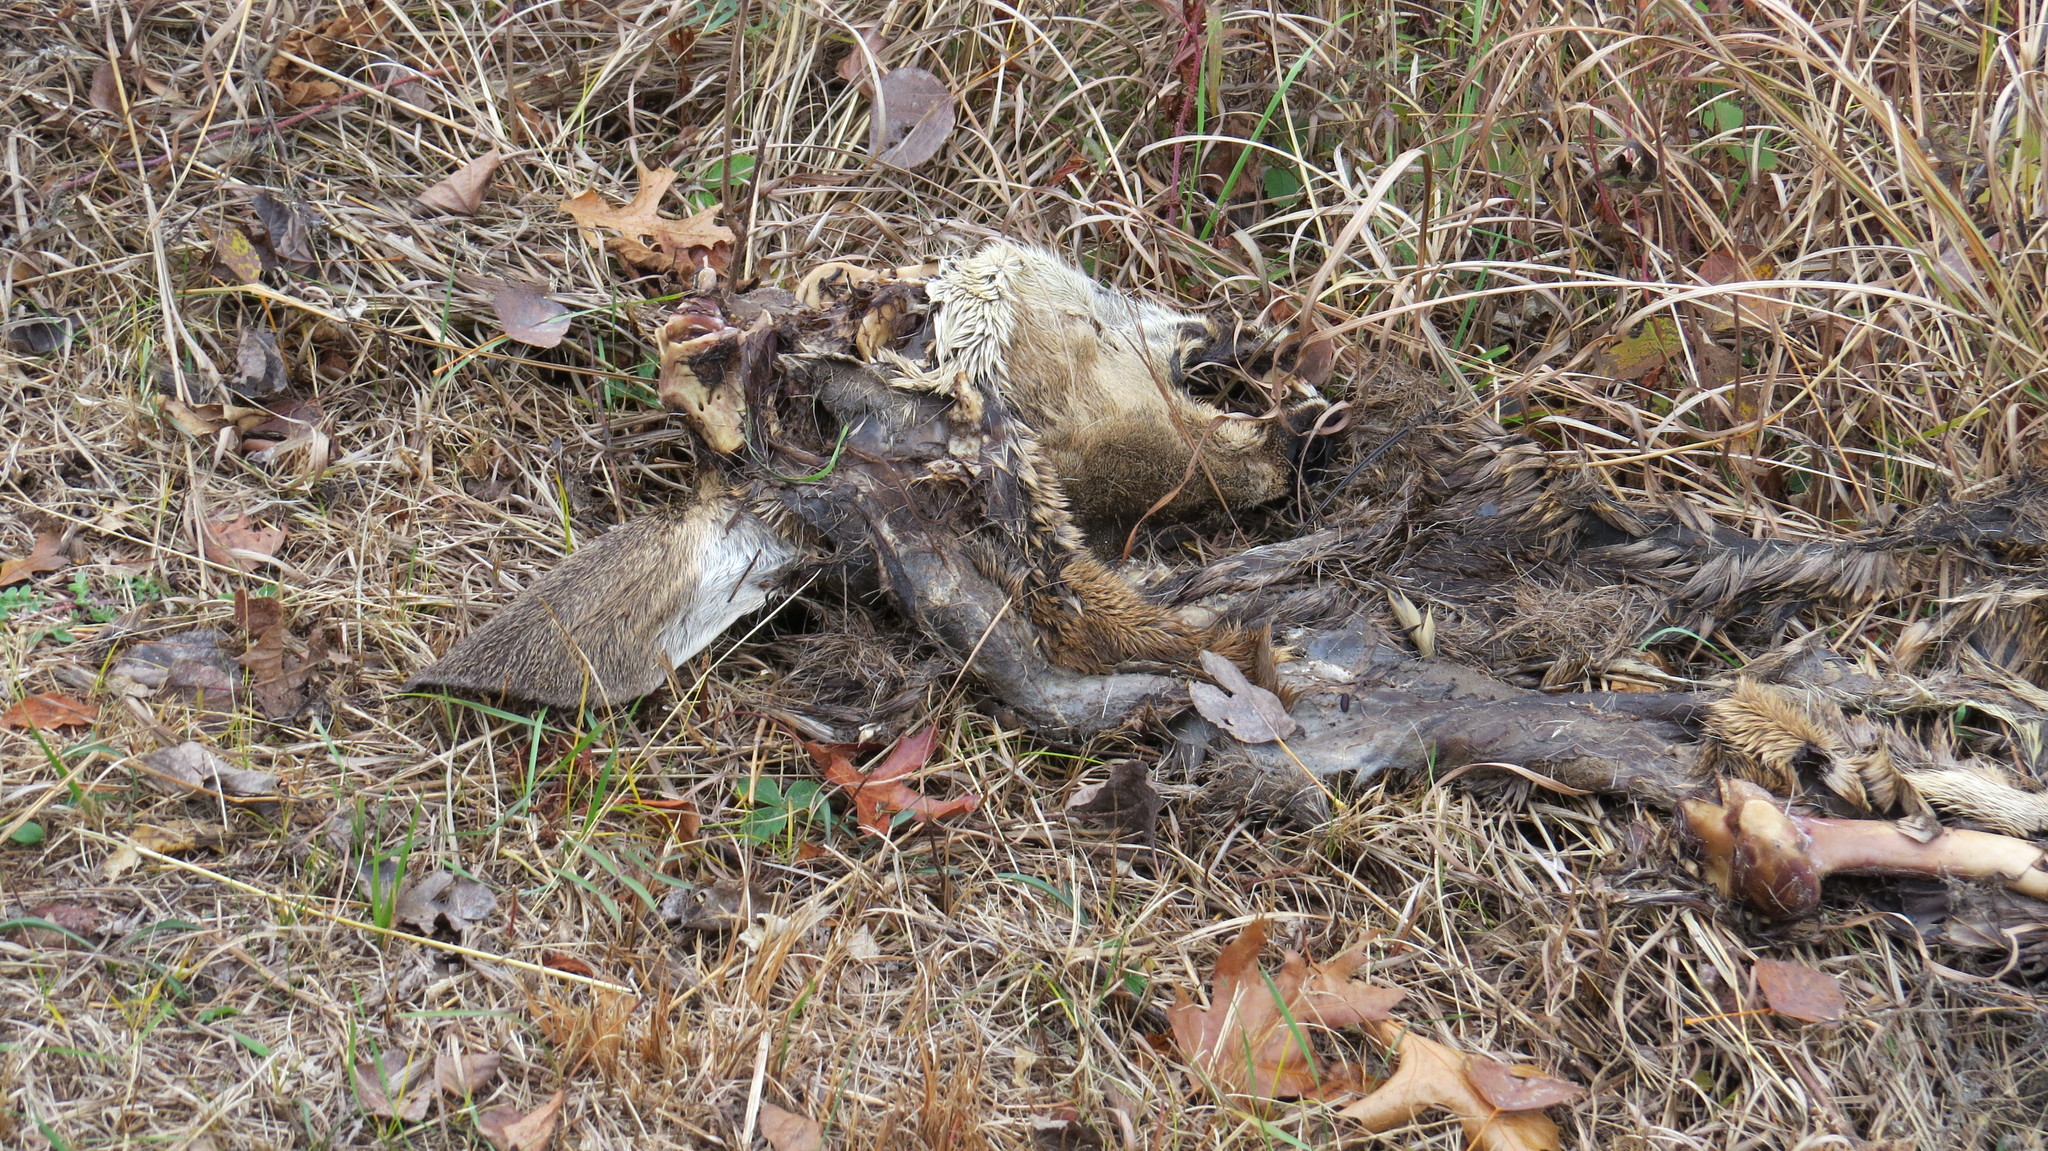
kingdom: Animalia
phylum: Chordata
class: Mammalia
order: Artiodactyla
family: Cervidae
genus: Odocoileus
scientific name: Odocoileus virginianus
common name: White-tailed deer
